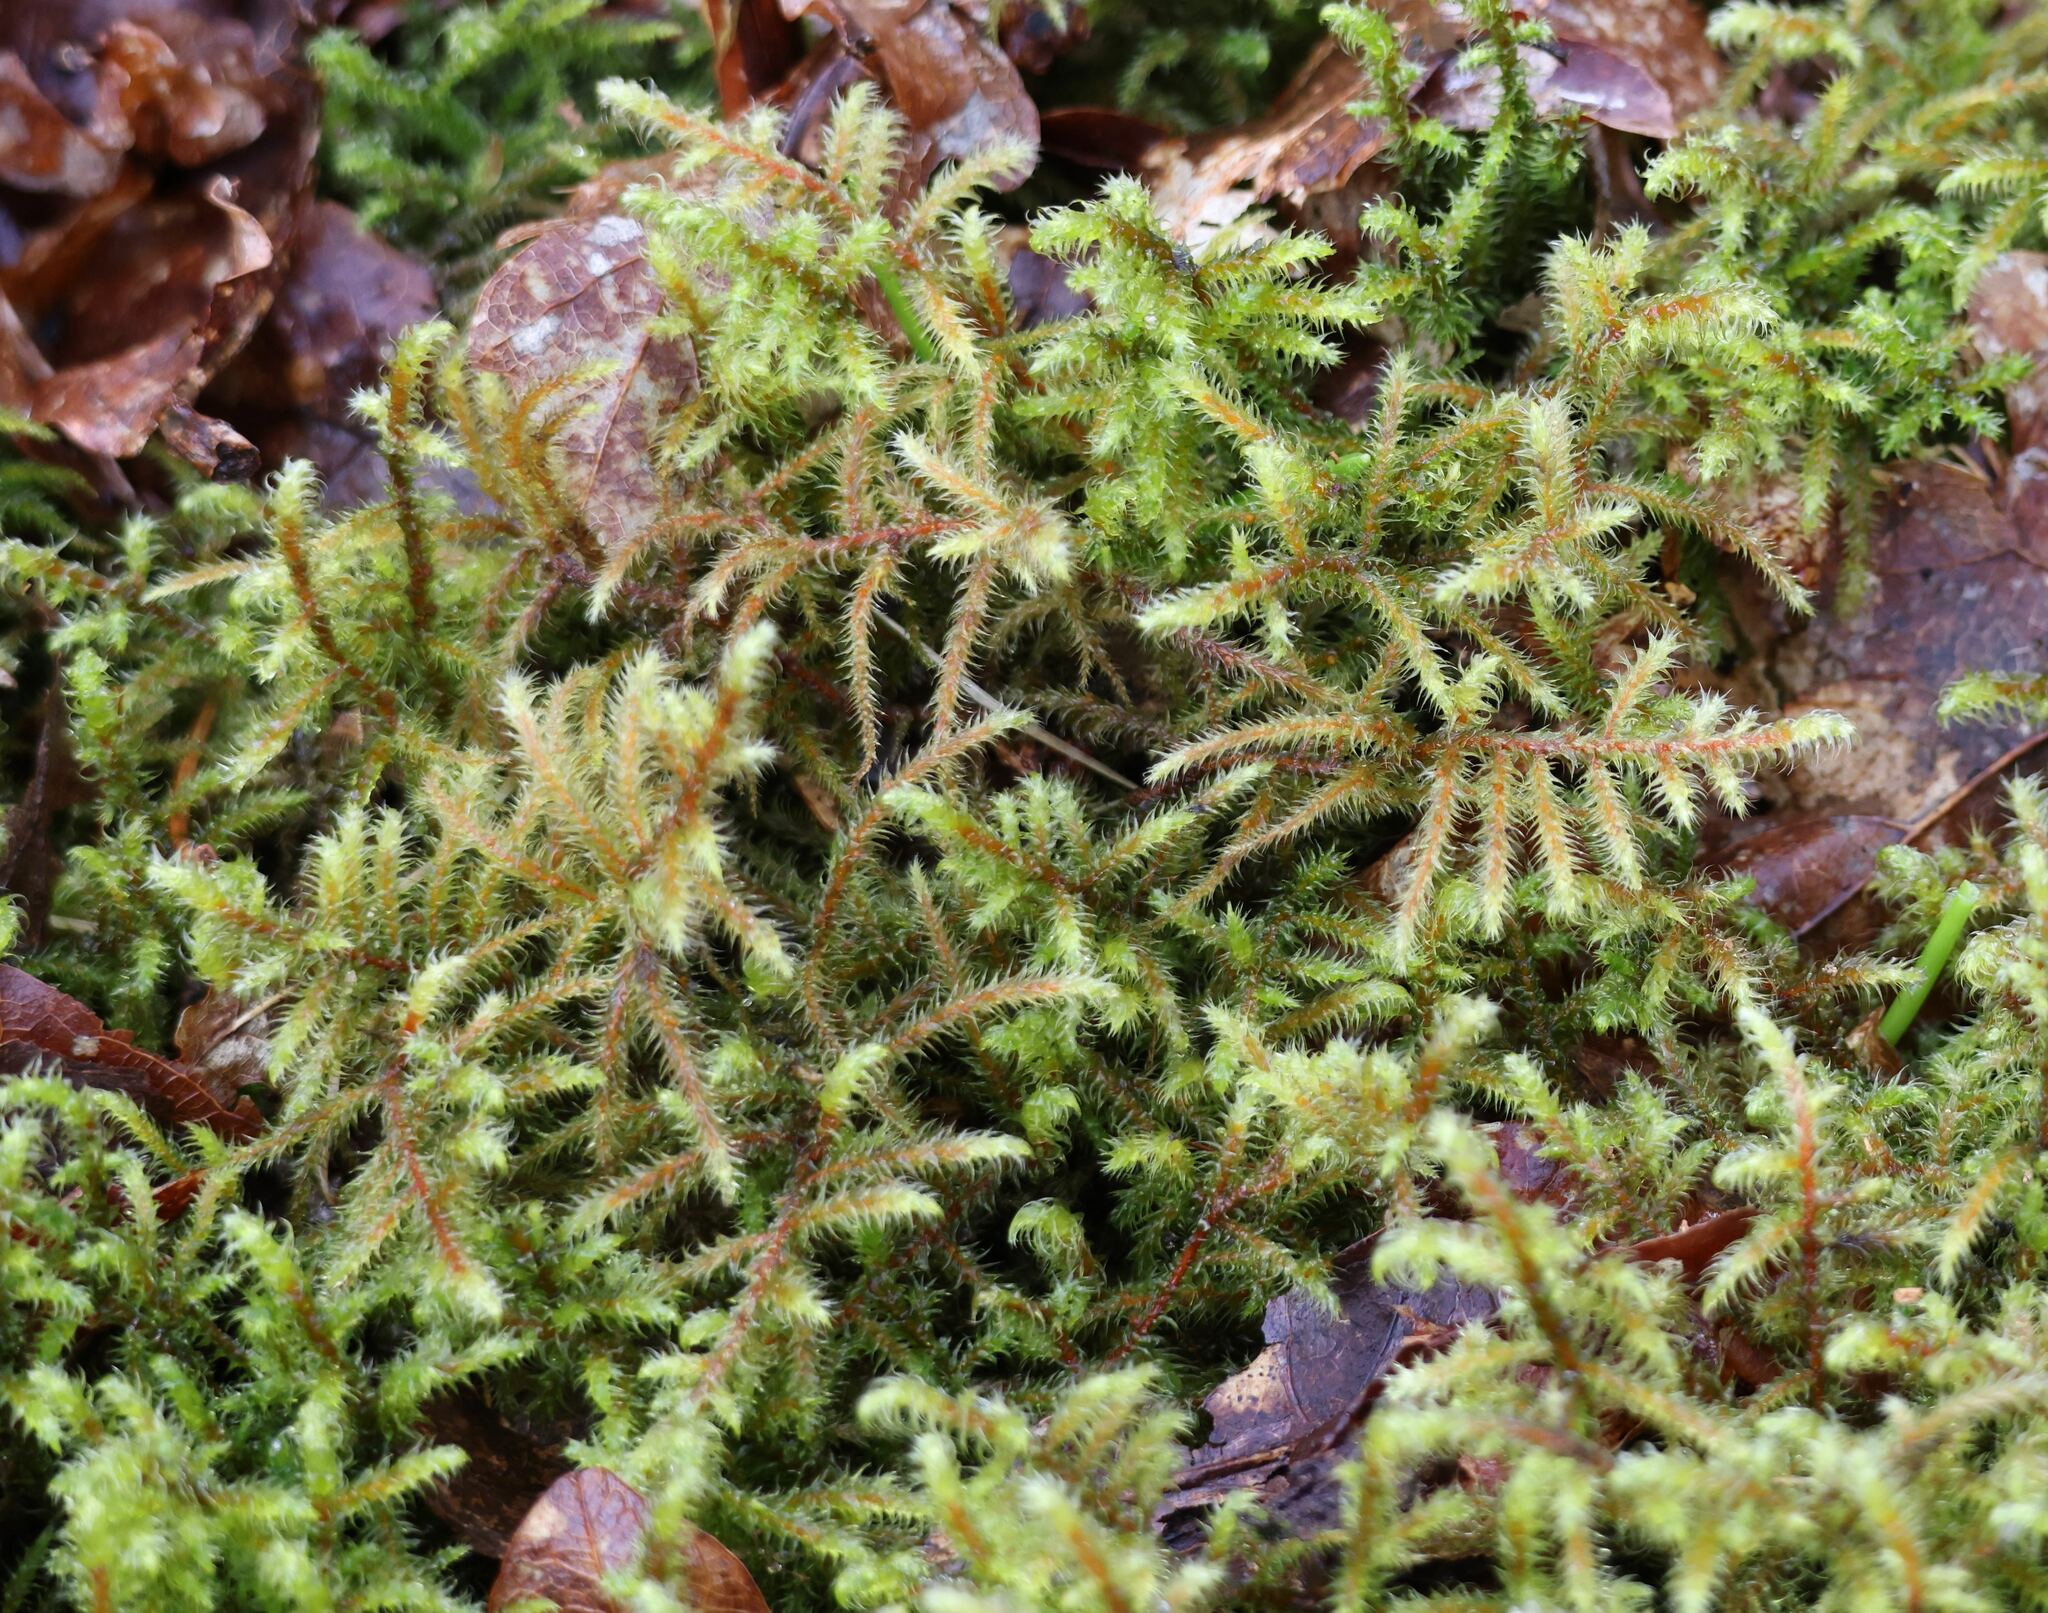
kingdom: Plantae
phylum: Bryophyta
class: Bryopsida
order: Hypnales
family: Hylocomiaceae
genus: Rhytidiadelphus
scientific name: Rhytidiadelphus loreus
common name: Lanky moss
